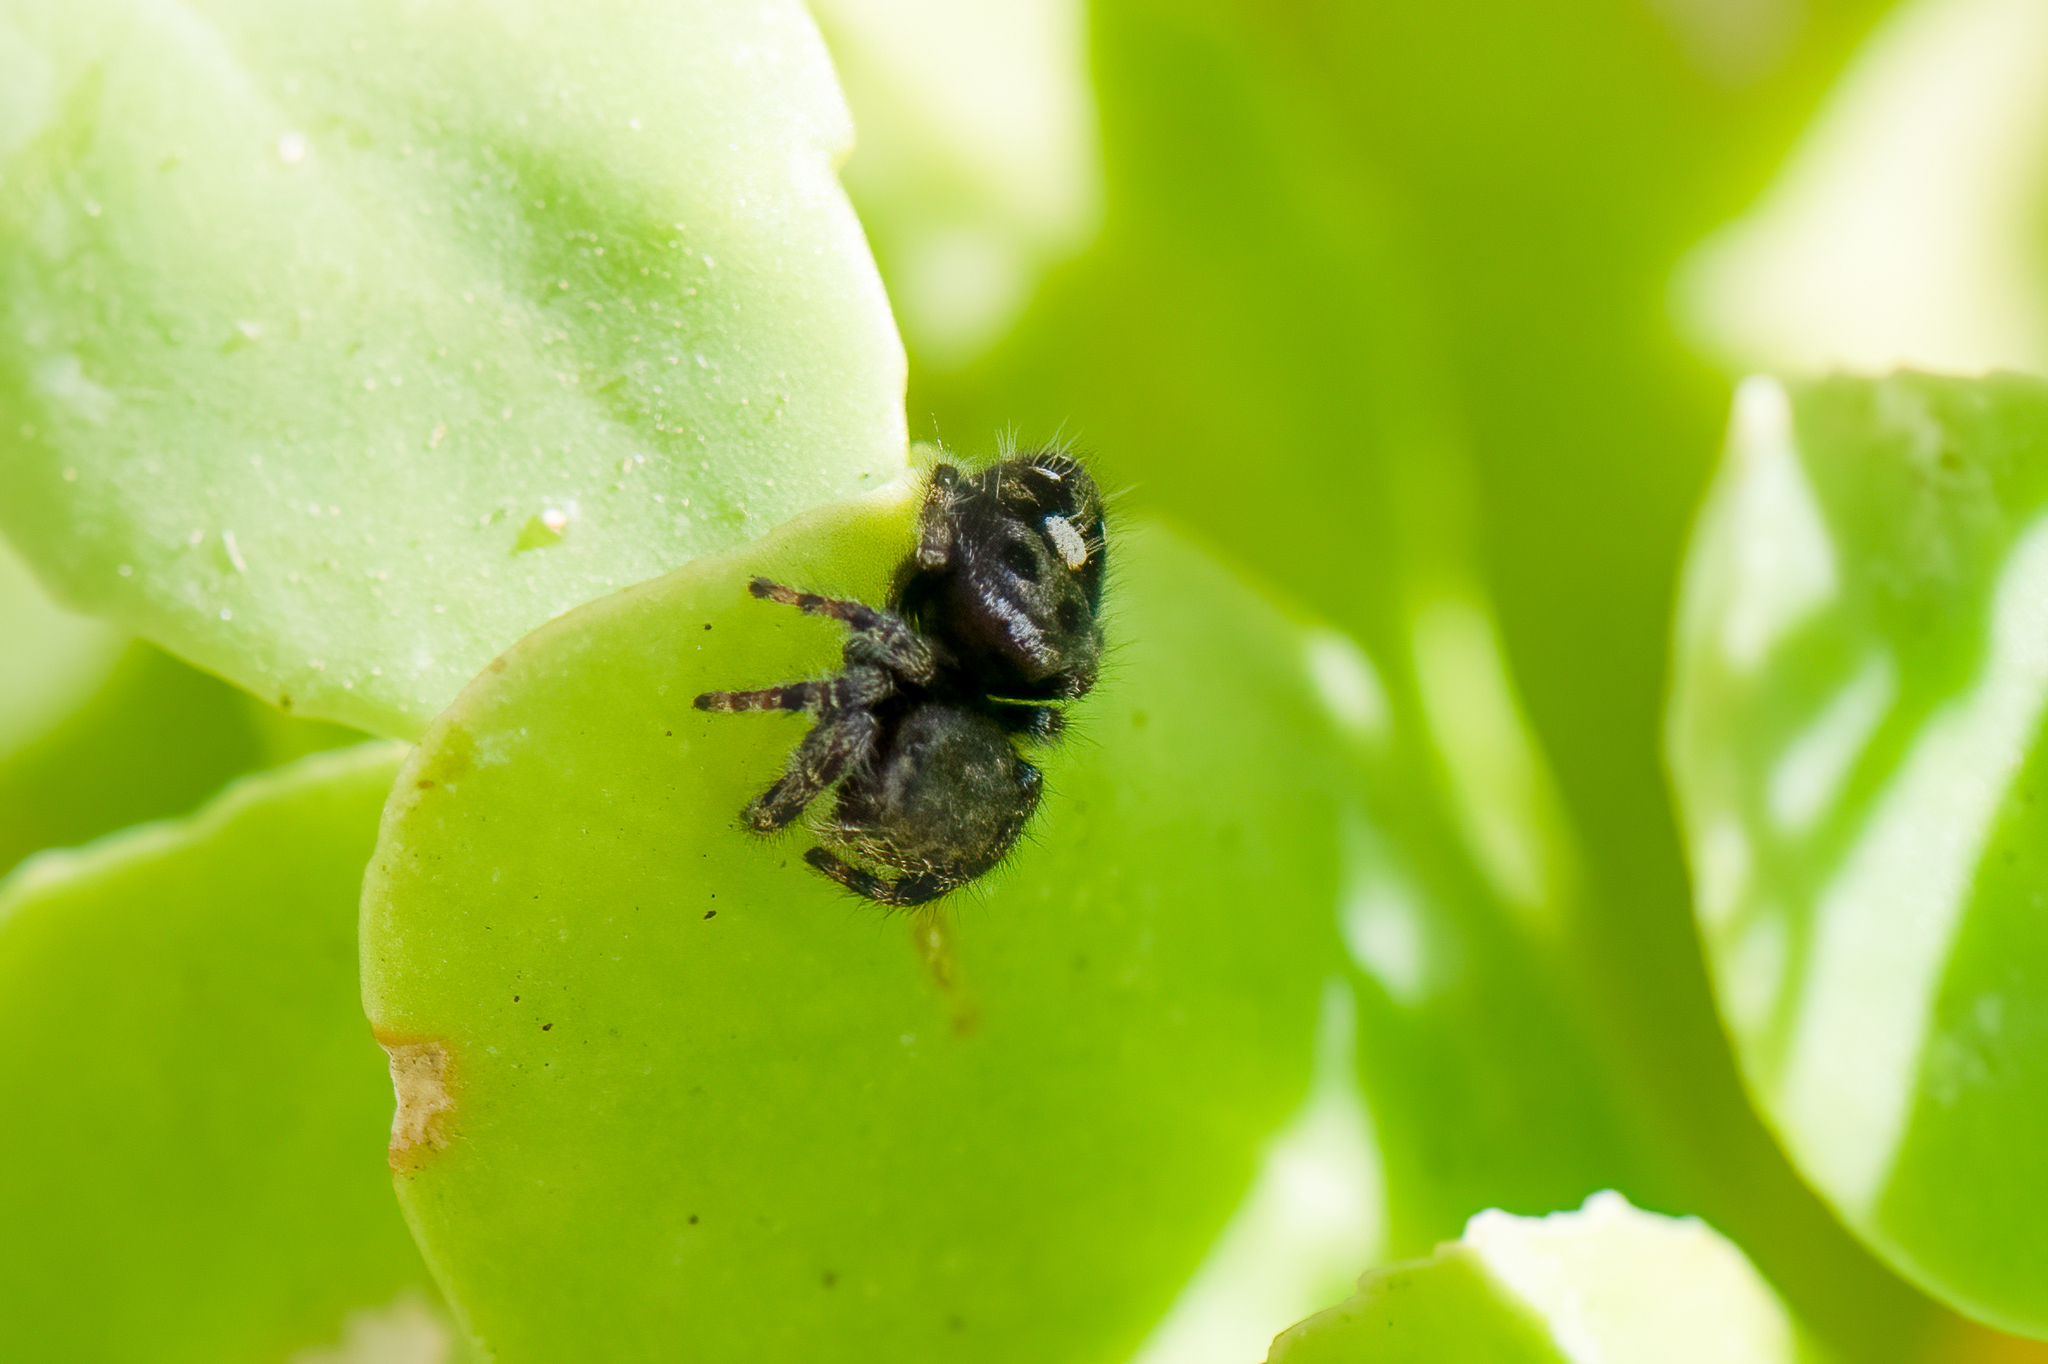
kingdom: Animalia
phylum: Arthropoda
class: Arachnida
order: Araneae
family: Salticidae
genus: Phidippus
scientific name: Phidippus audax
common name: Bold jumper
